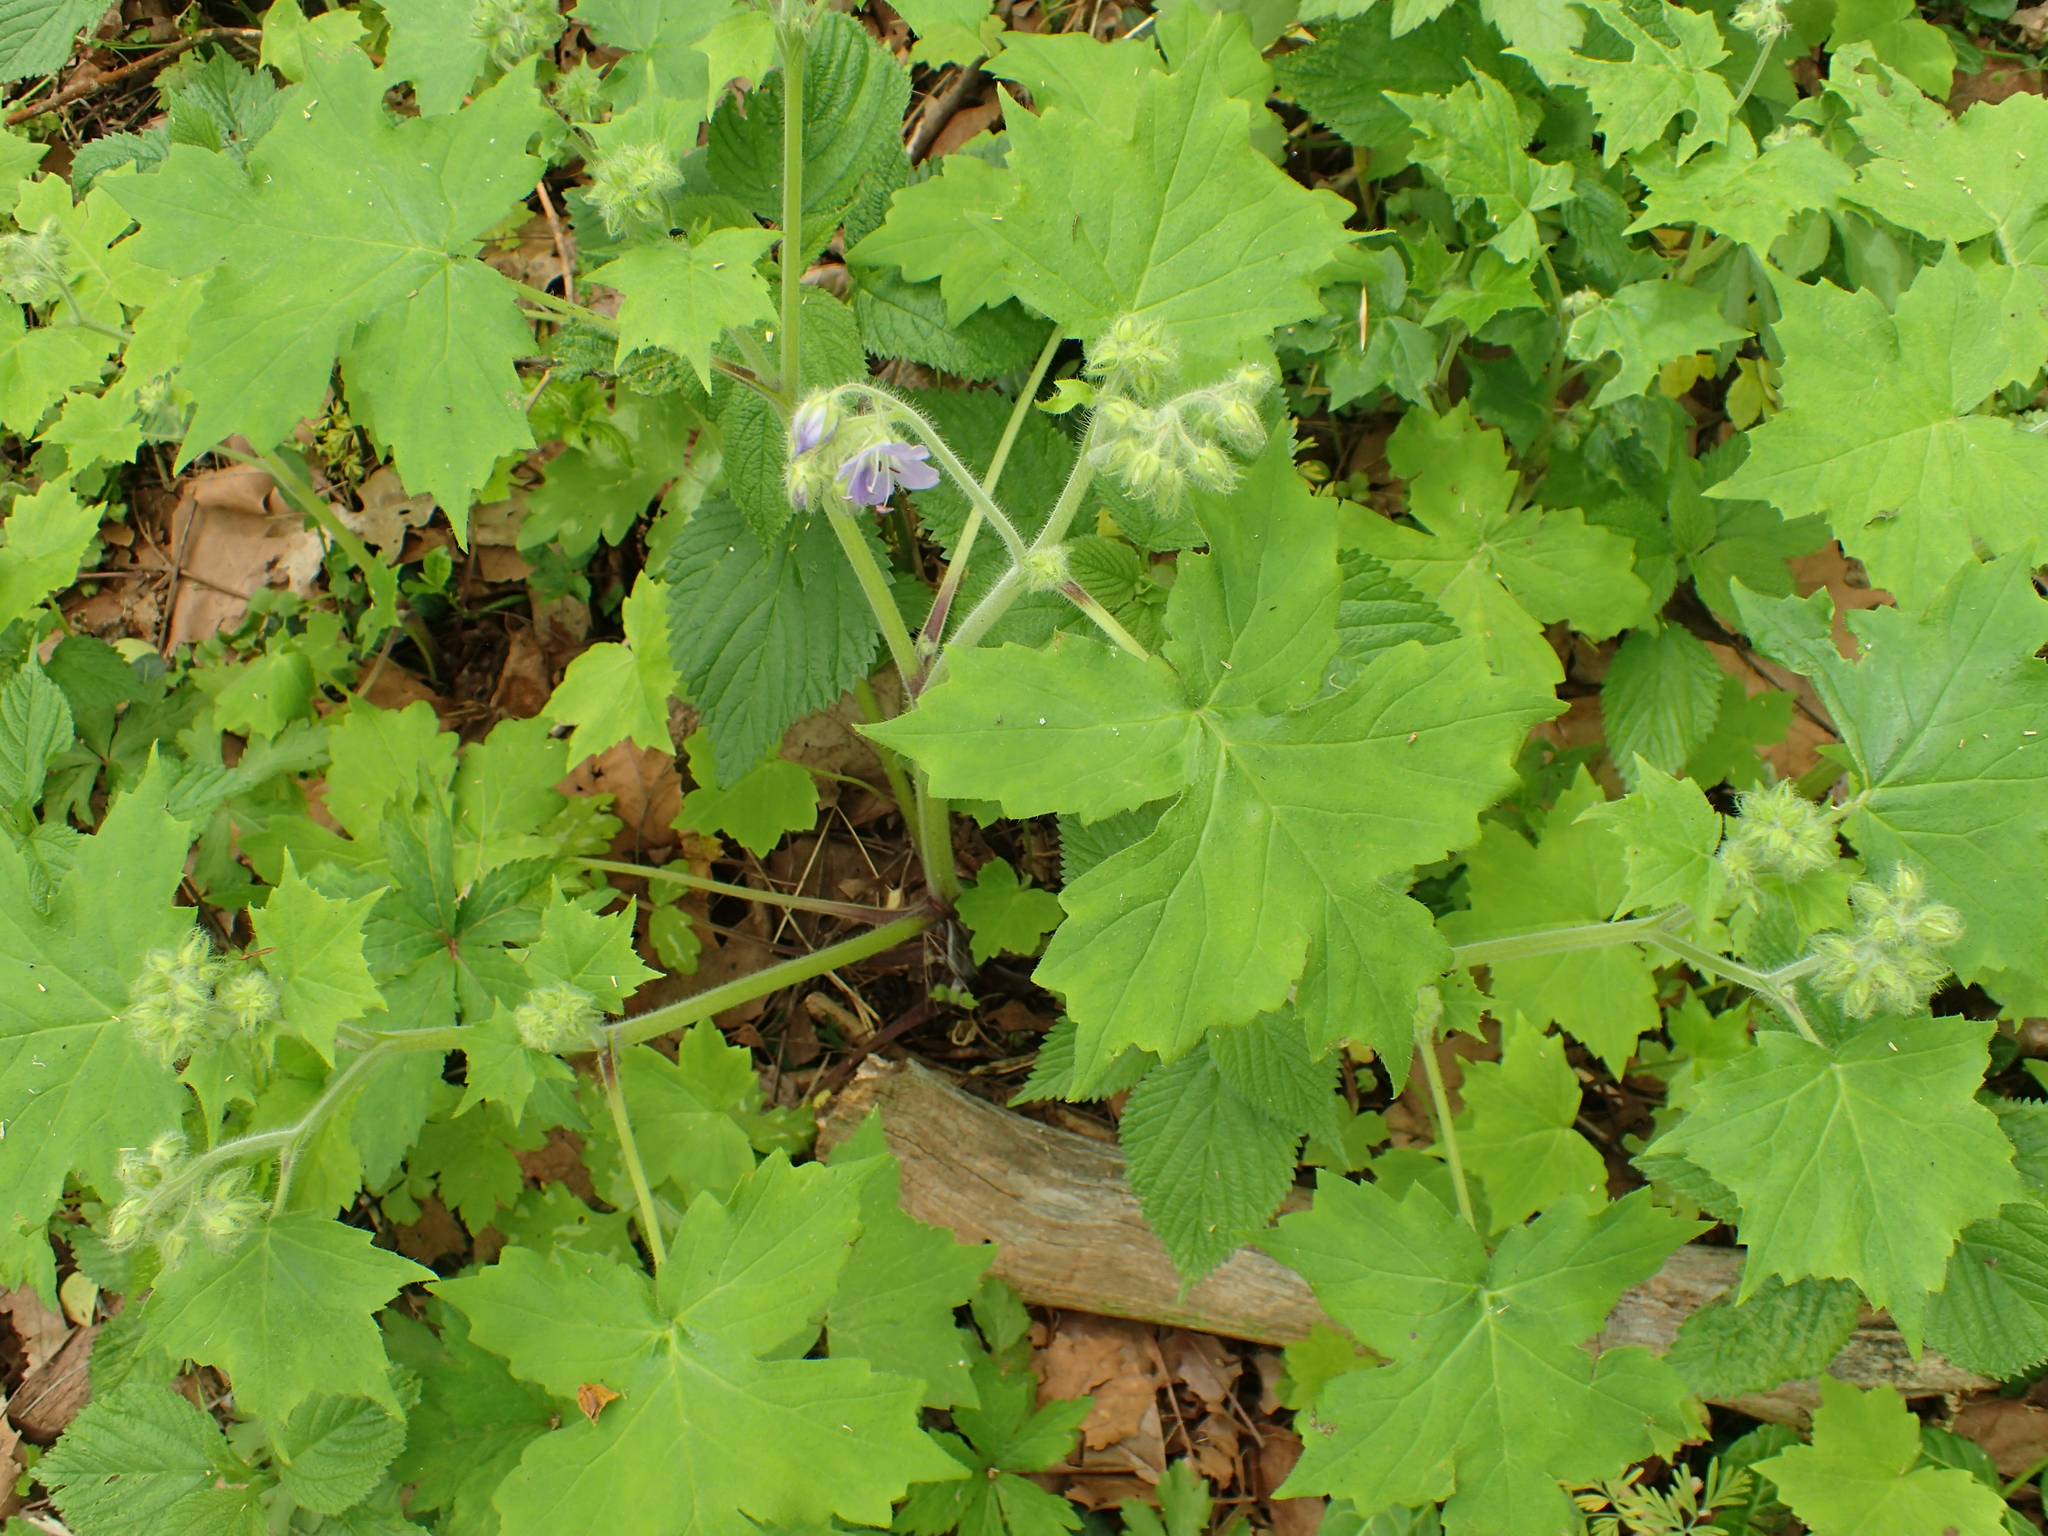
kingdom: Plantae
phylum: Tracheophyta
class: Magnoliopsida
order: Boraginales
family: Hydrophyllaceae
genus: Hydrophyllum
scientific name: Hydrophyllum appendiculatum
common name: Appendaged waterleaf
